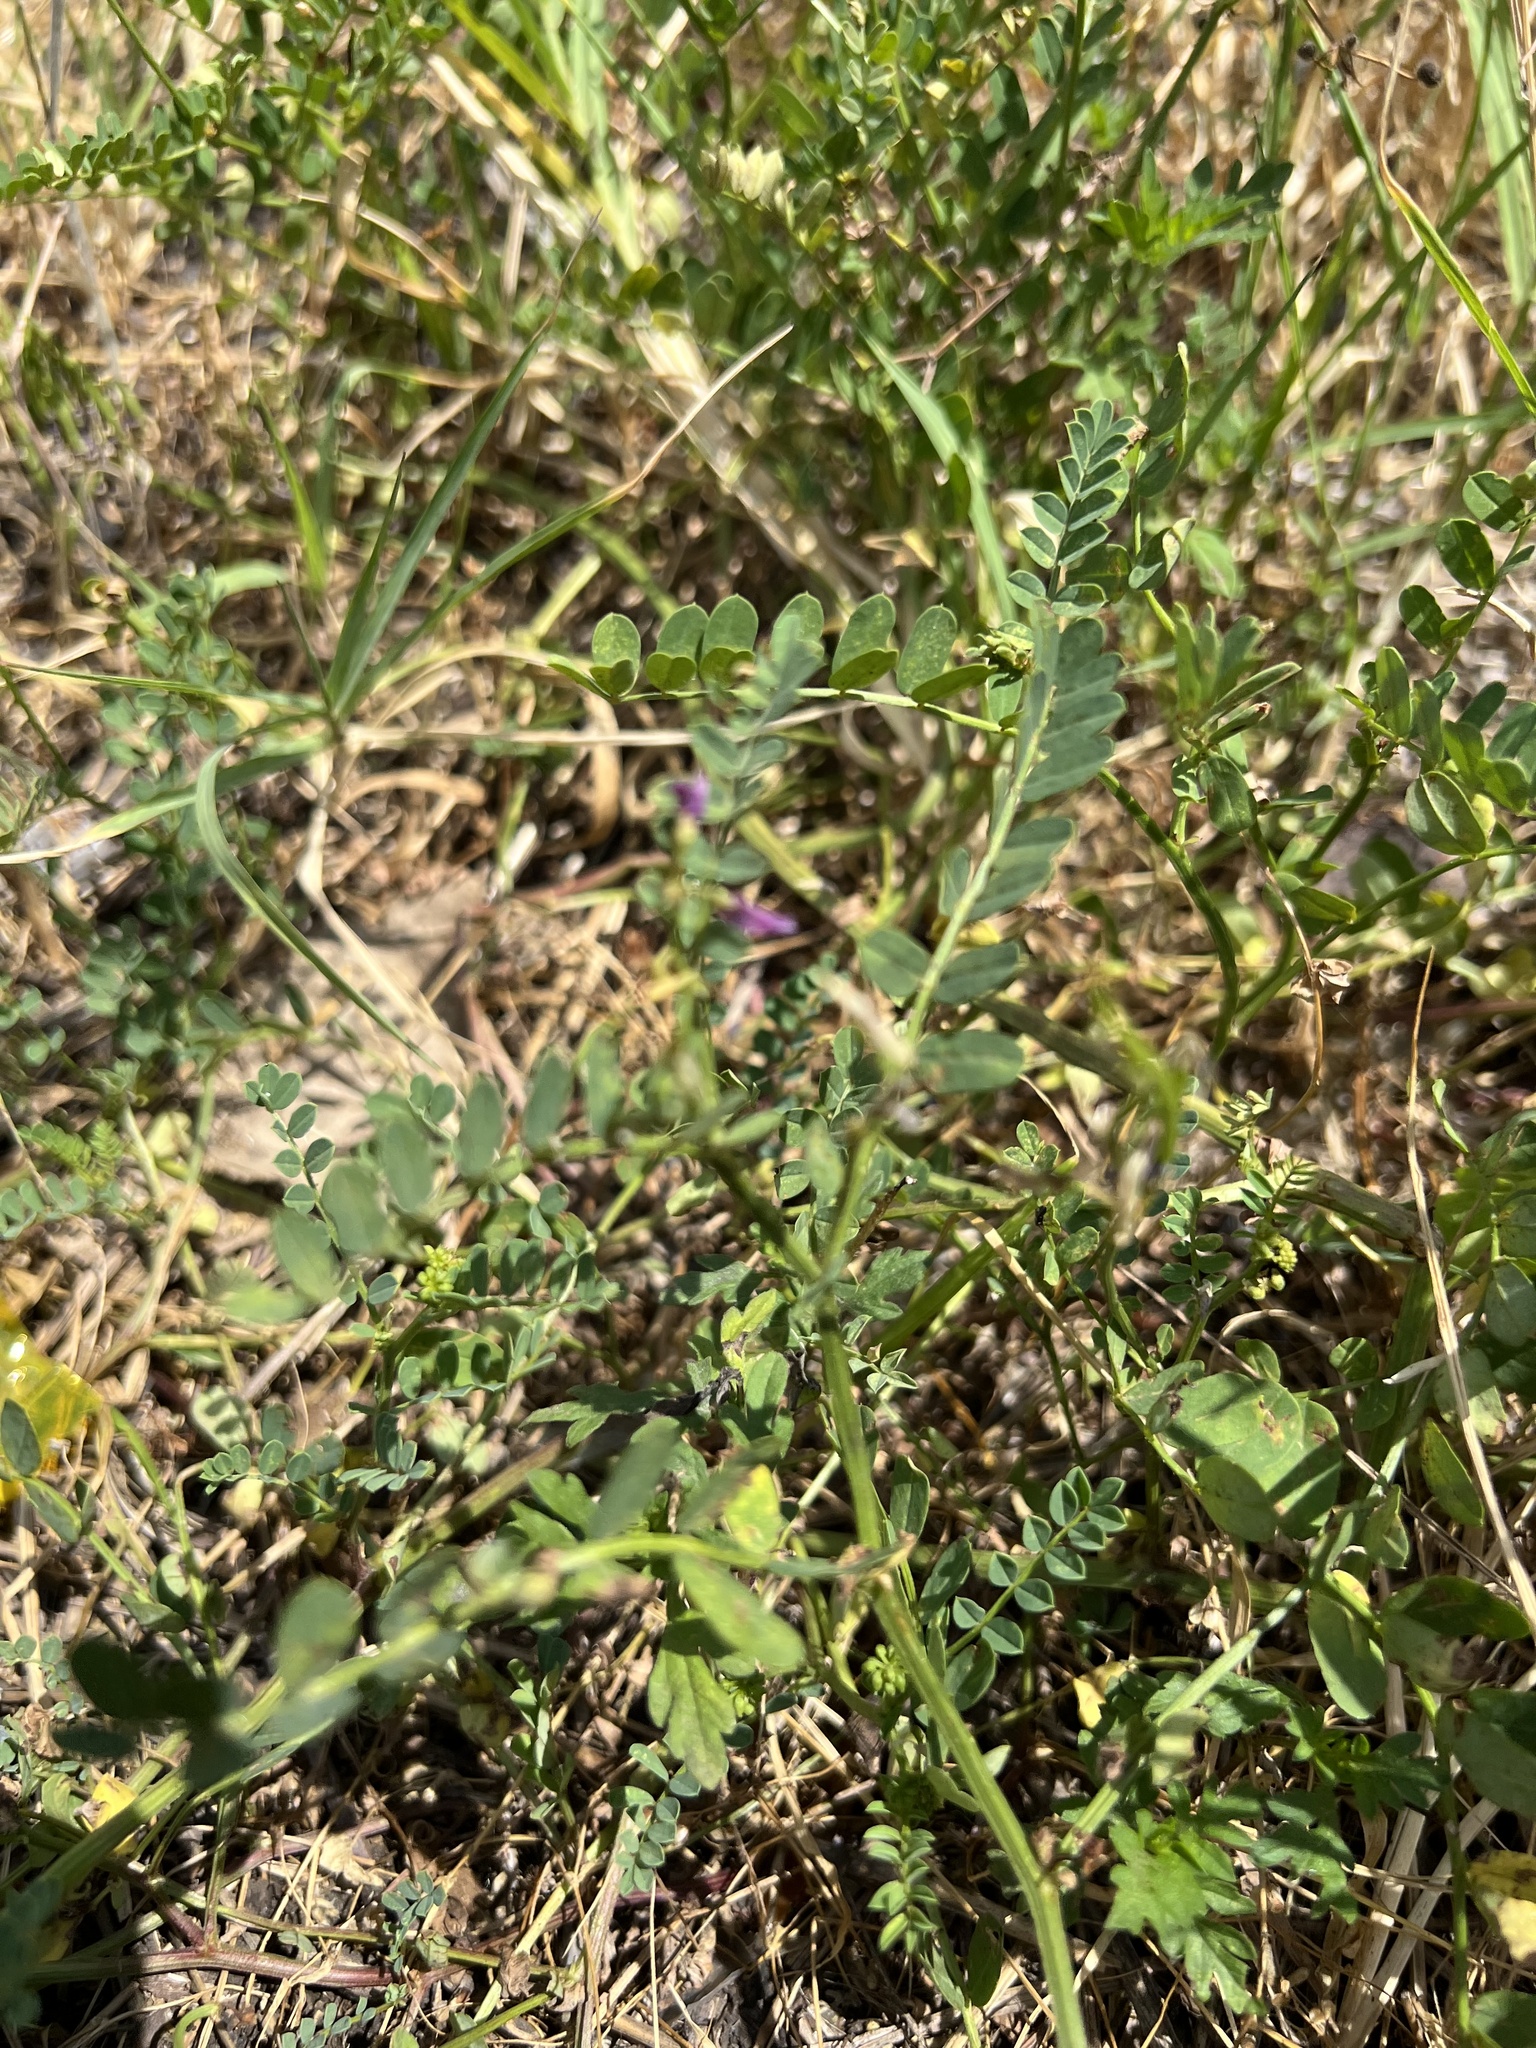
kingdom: Plantae
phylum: Tracheophyta
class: Magnoliopsida
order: Fabales
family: Fabaceae
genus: Coronilla
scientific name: Coronilla varia
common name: Crownvetch
